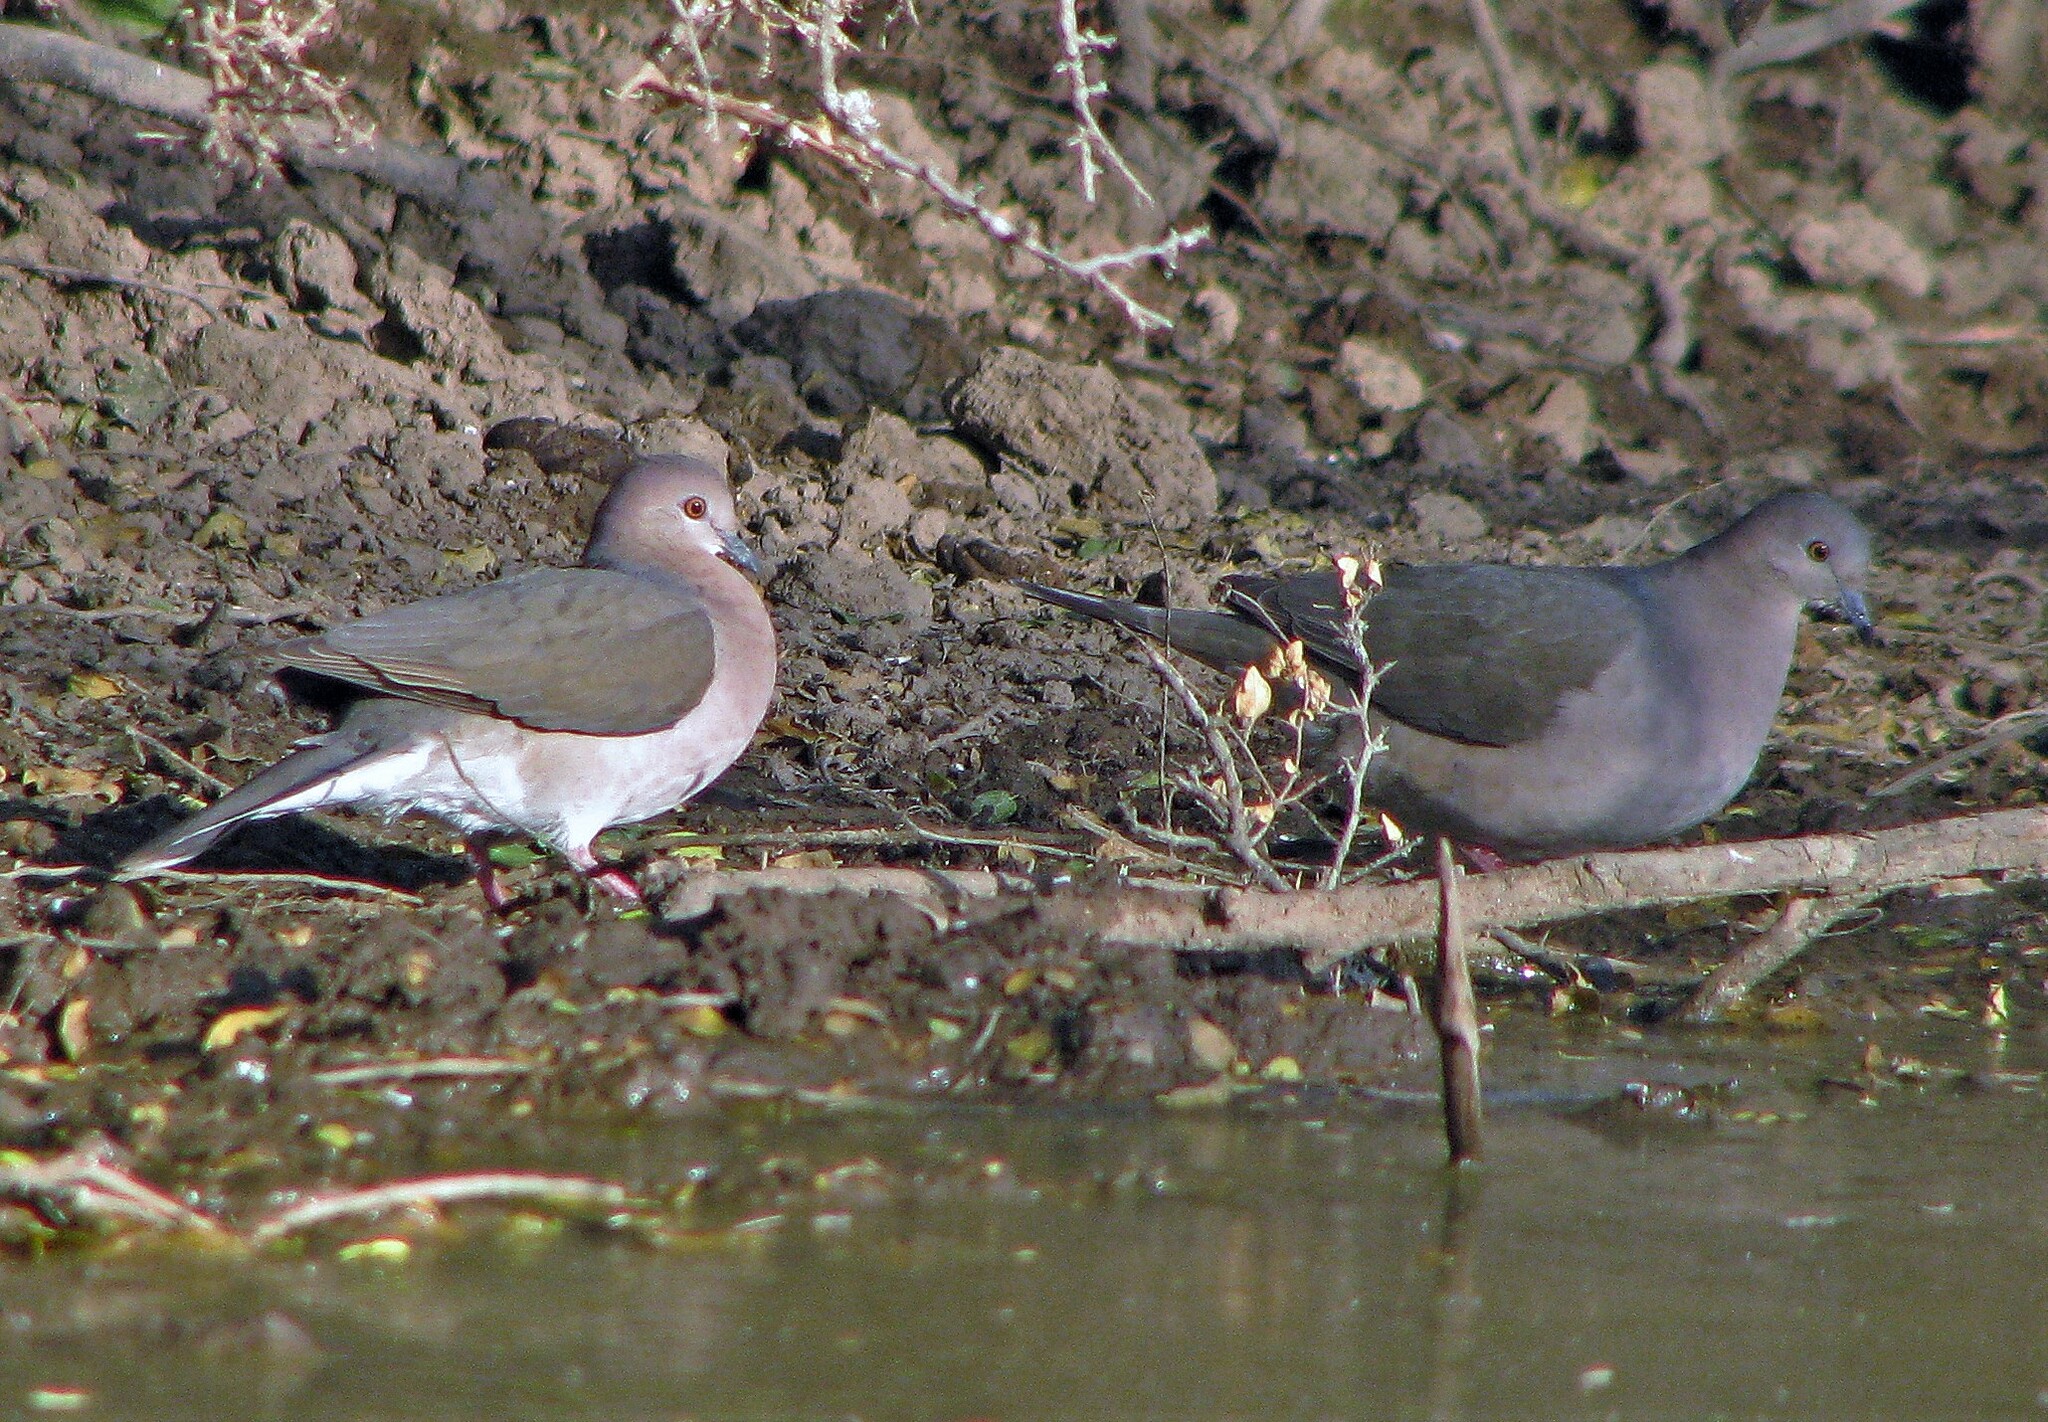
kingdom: Animalia
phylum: Chordata
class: Aves
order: Columbiformes
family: Columbidae
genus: Leptotila
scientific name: Leptotila verreauxi
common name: White-tipped dove
